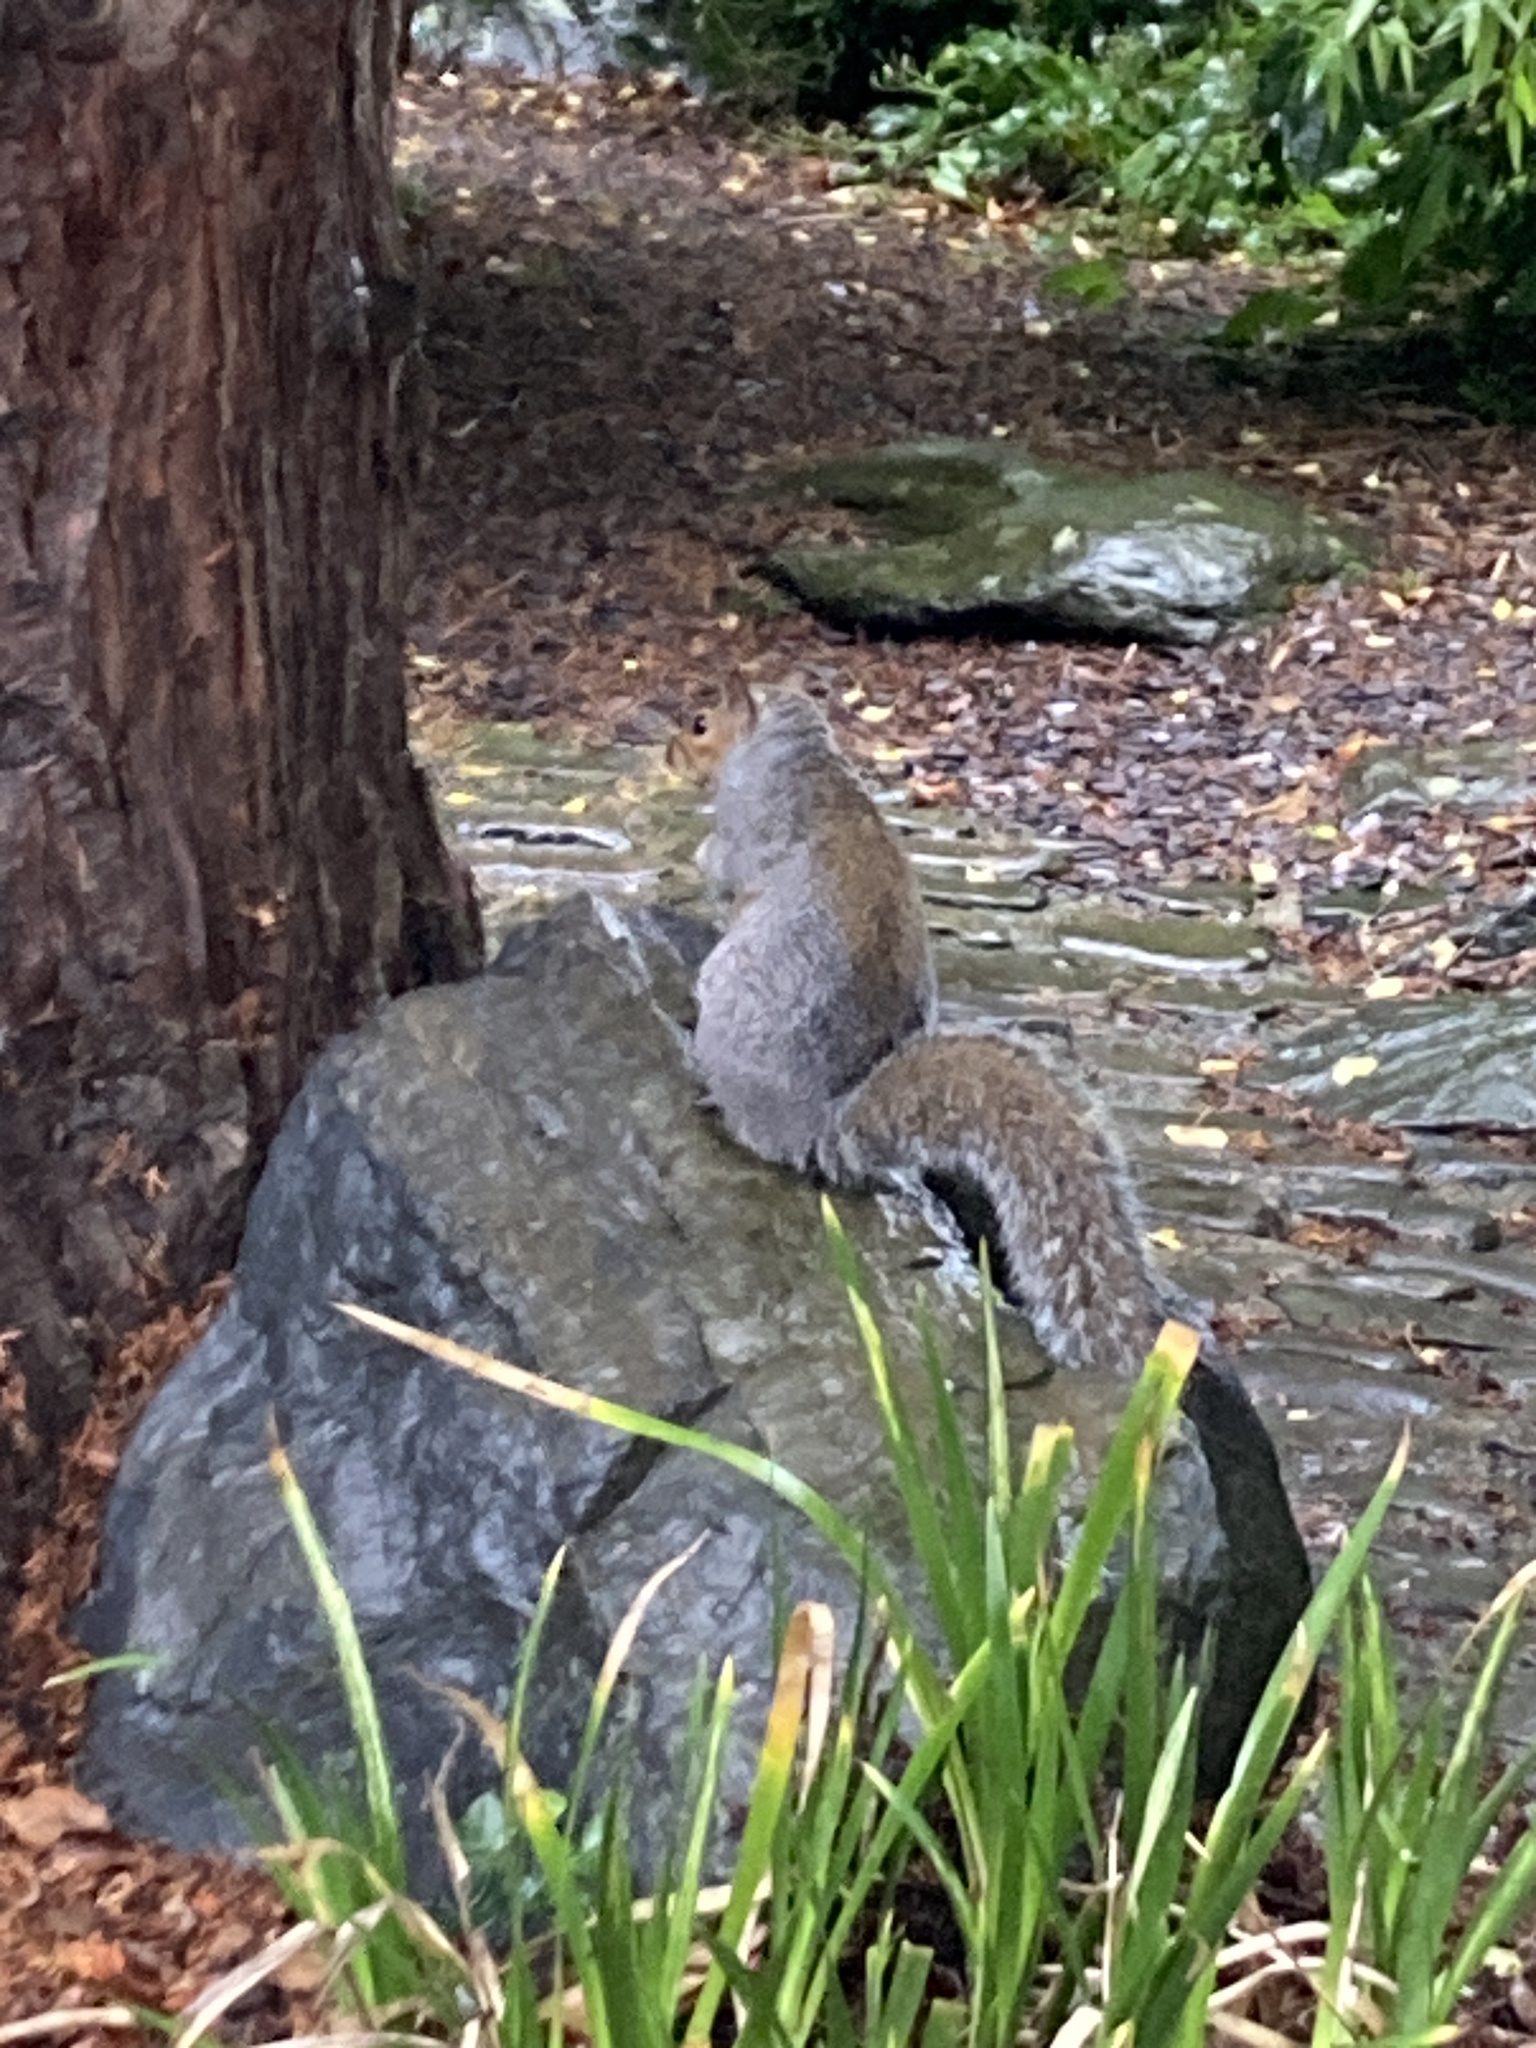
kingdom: Animalia
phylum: Chordata
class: Mammalia
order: Rodentia
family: Sciuridae
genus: Sciurus
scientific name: Sciurus carolinensis
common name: Eastern gray squirrel
